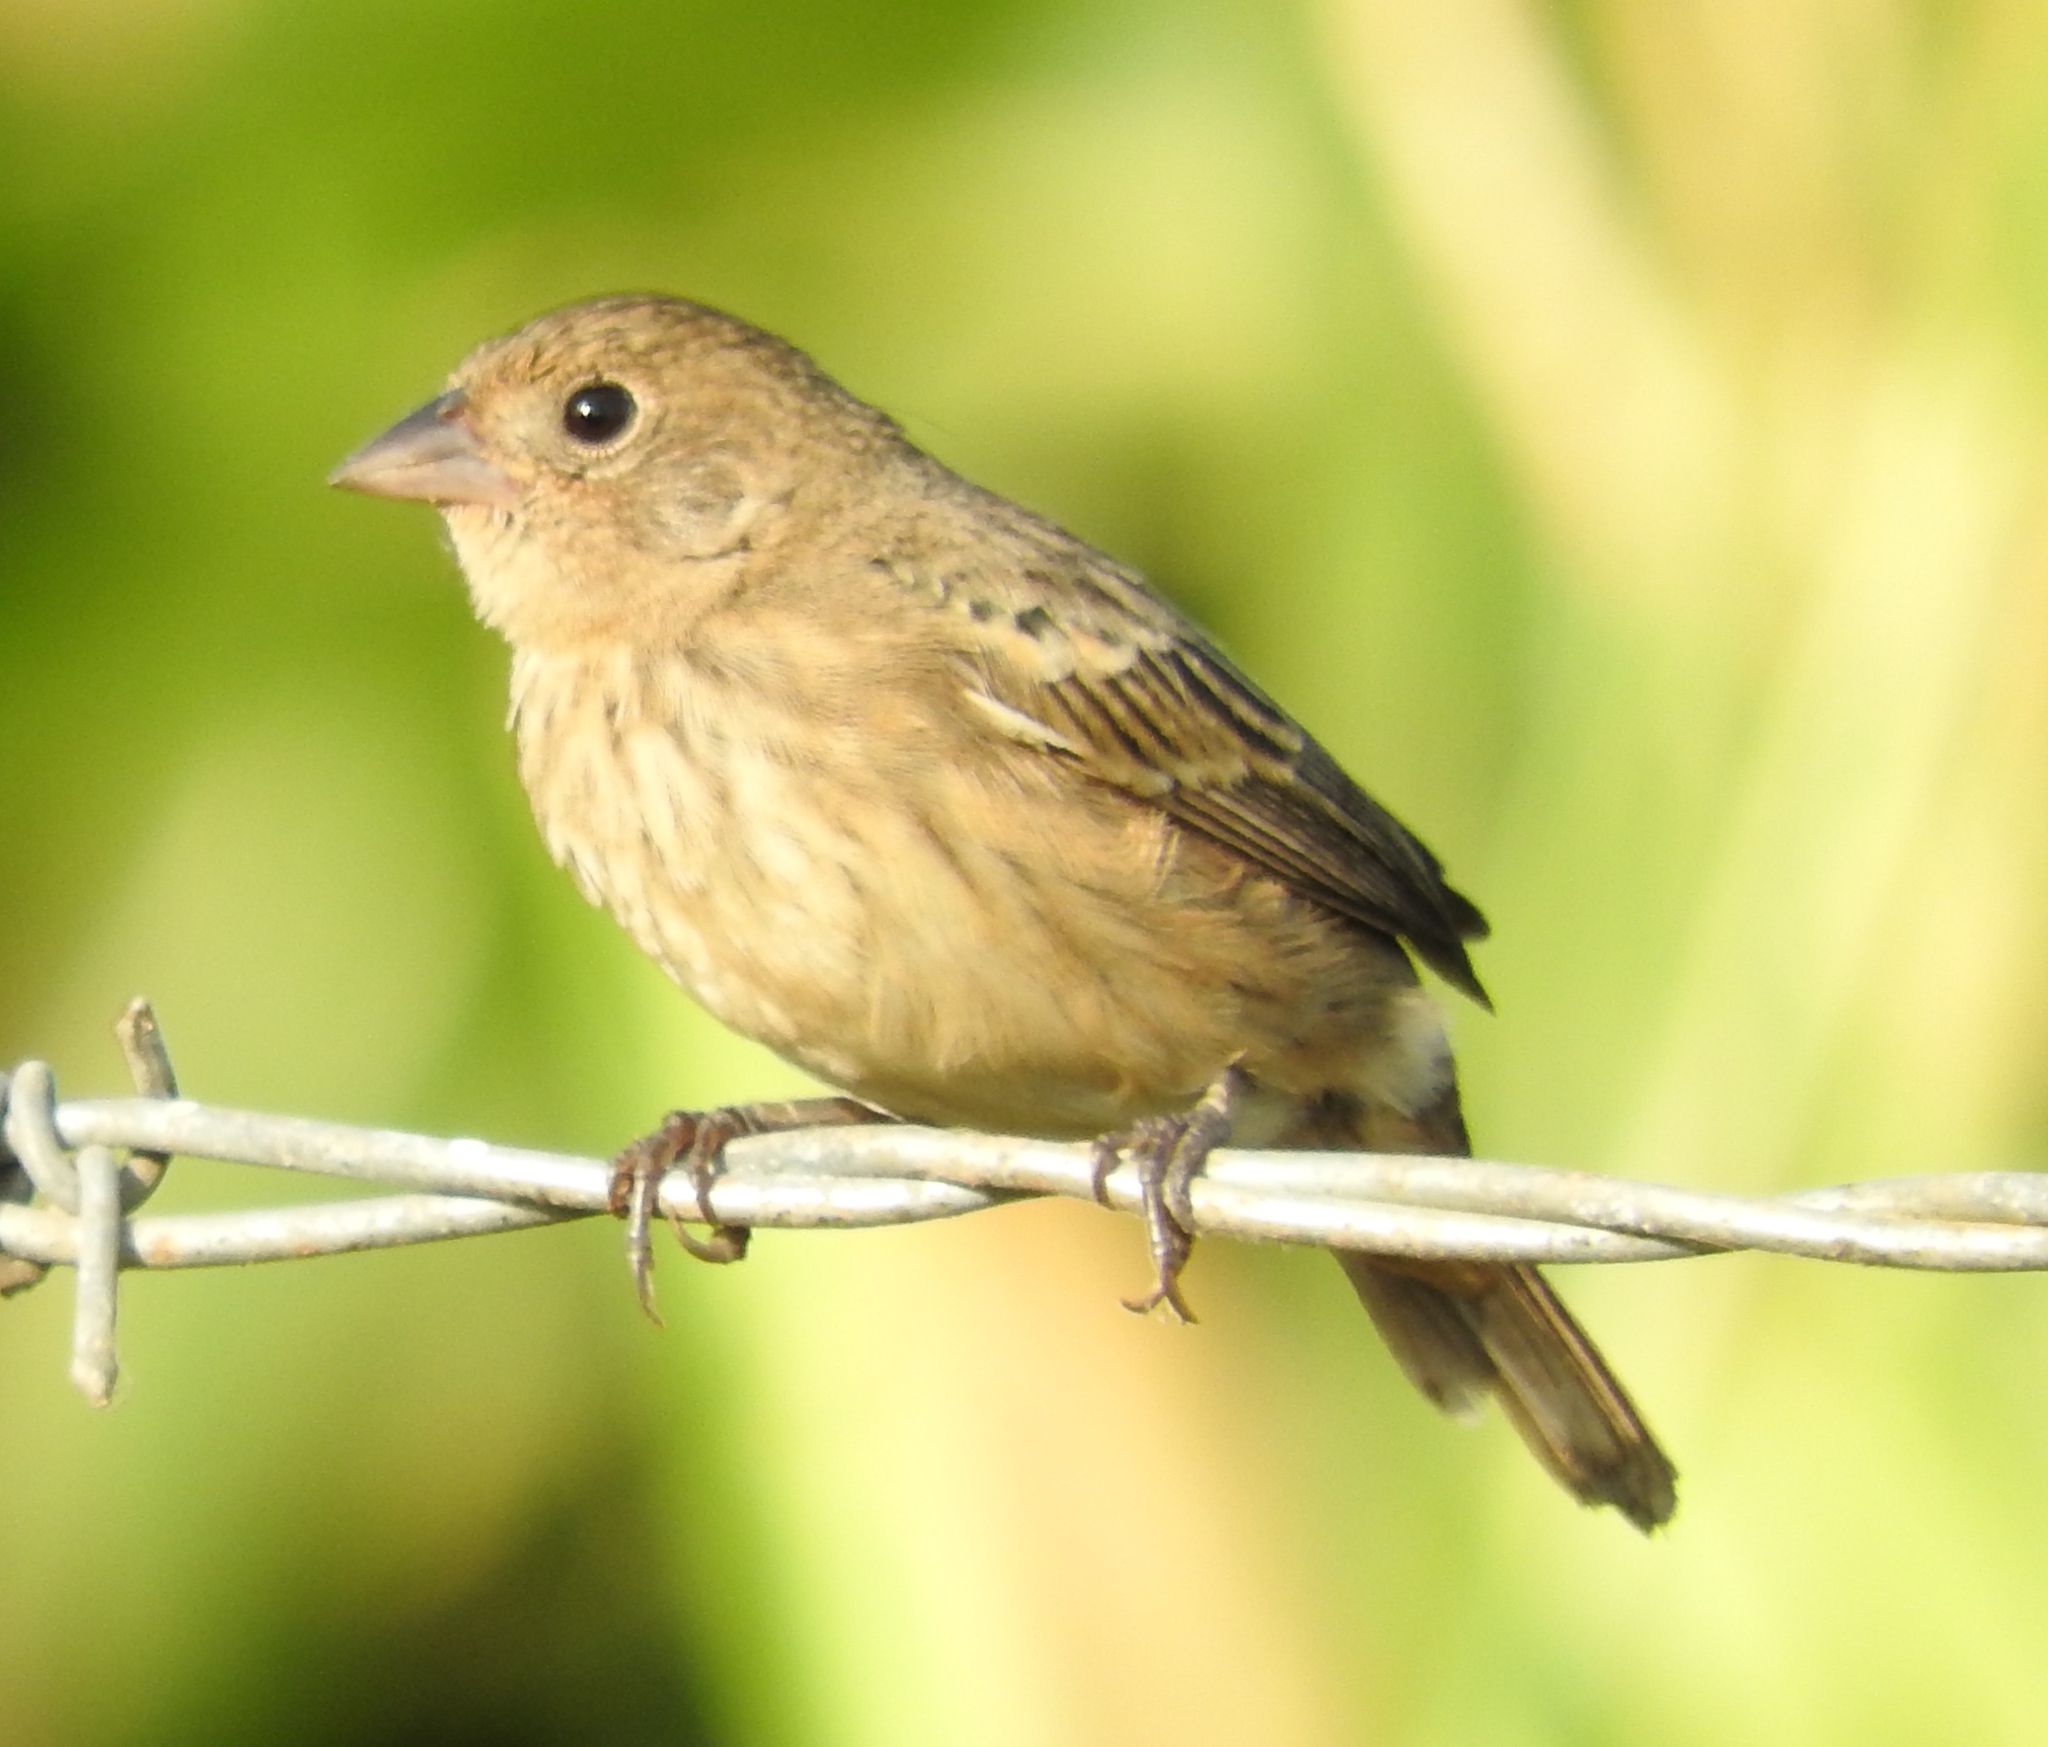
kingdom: Animalia
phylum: Chordata
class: Aves
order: Passeriformes
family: Thraupidae
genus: Volatinia
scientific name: Volatinia jacarina
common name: Blue-black grassquit
